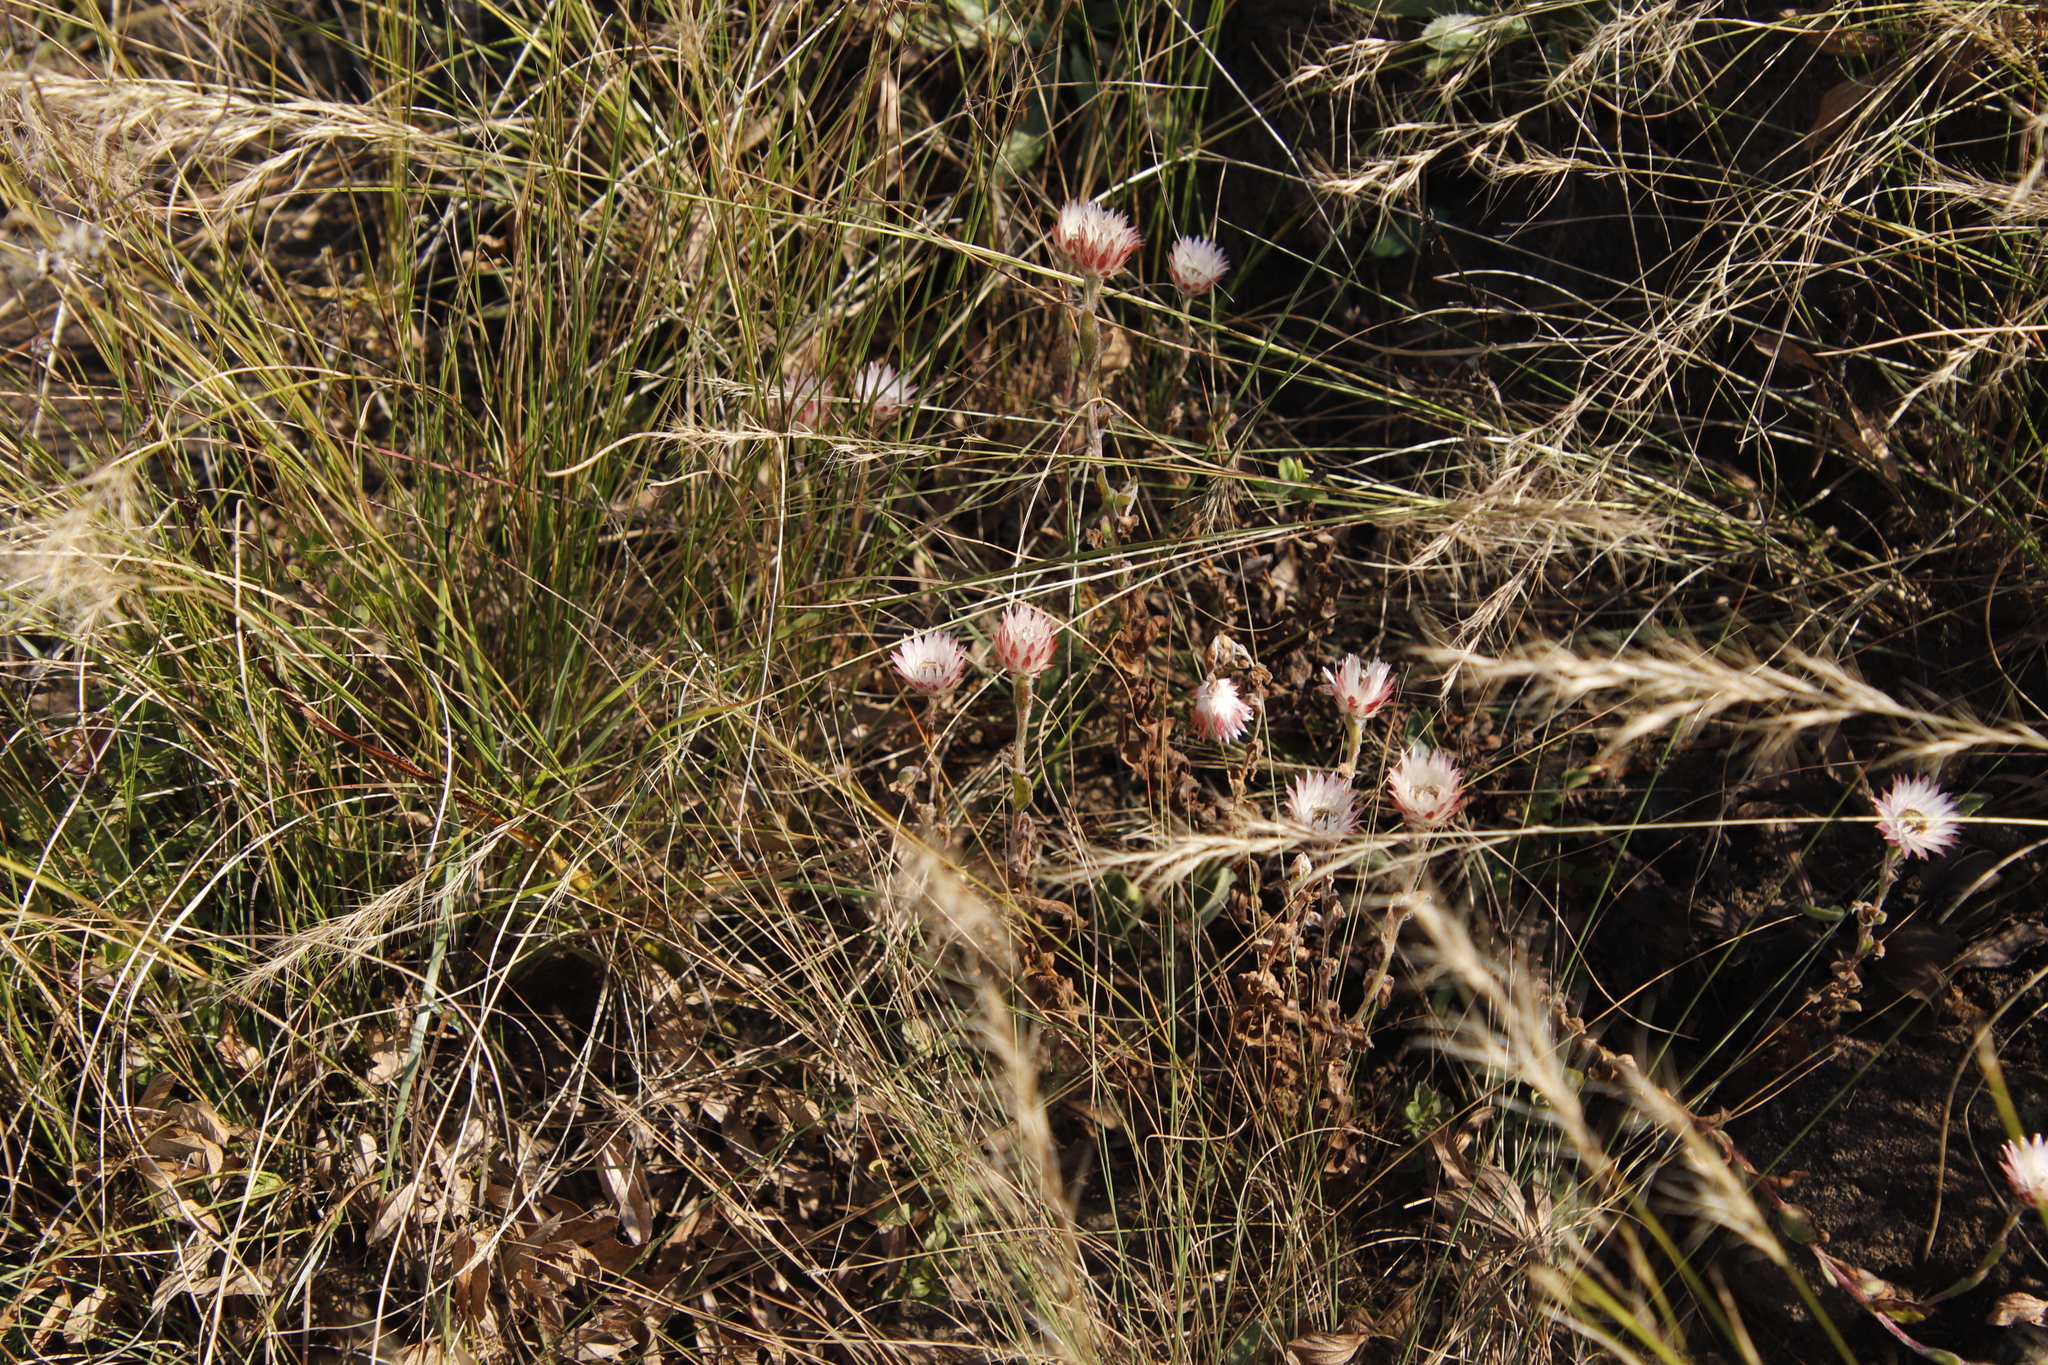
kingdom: Plantae
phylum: Tracheophyta
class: Magnoliopsida
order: Asterales
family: Asteraceae
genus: Helichrysum
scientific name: Helichrysum adenocarpum
